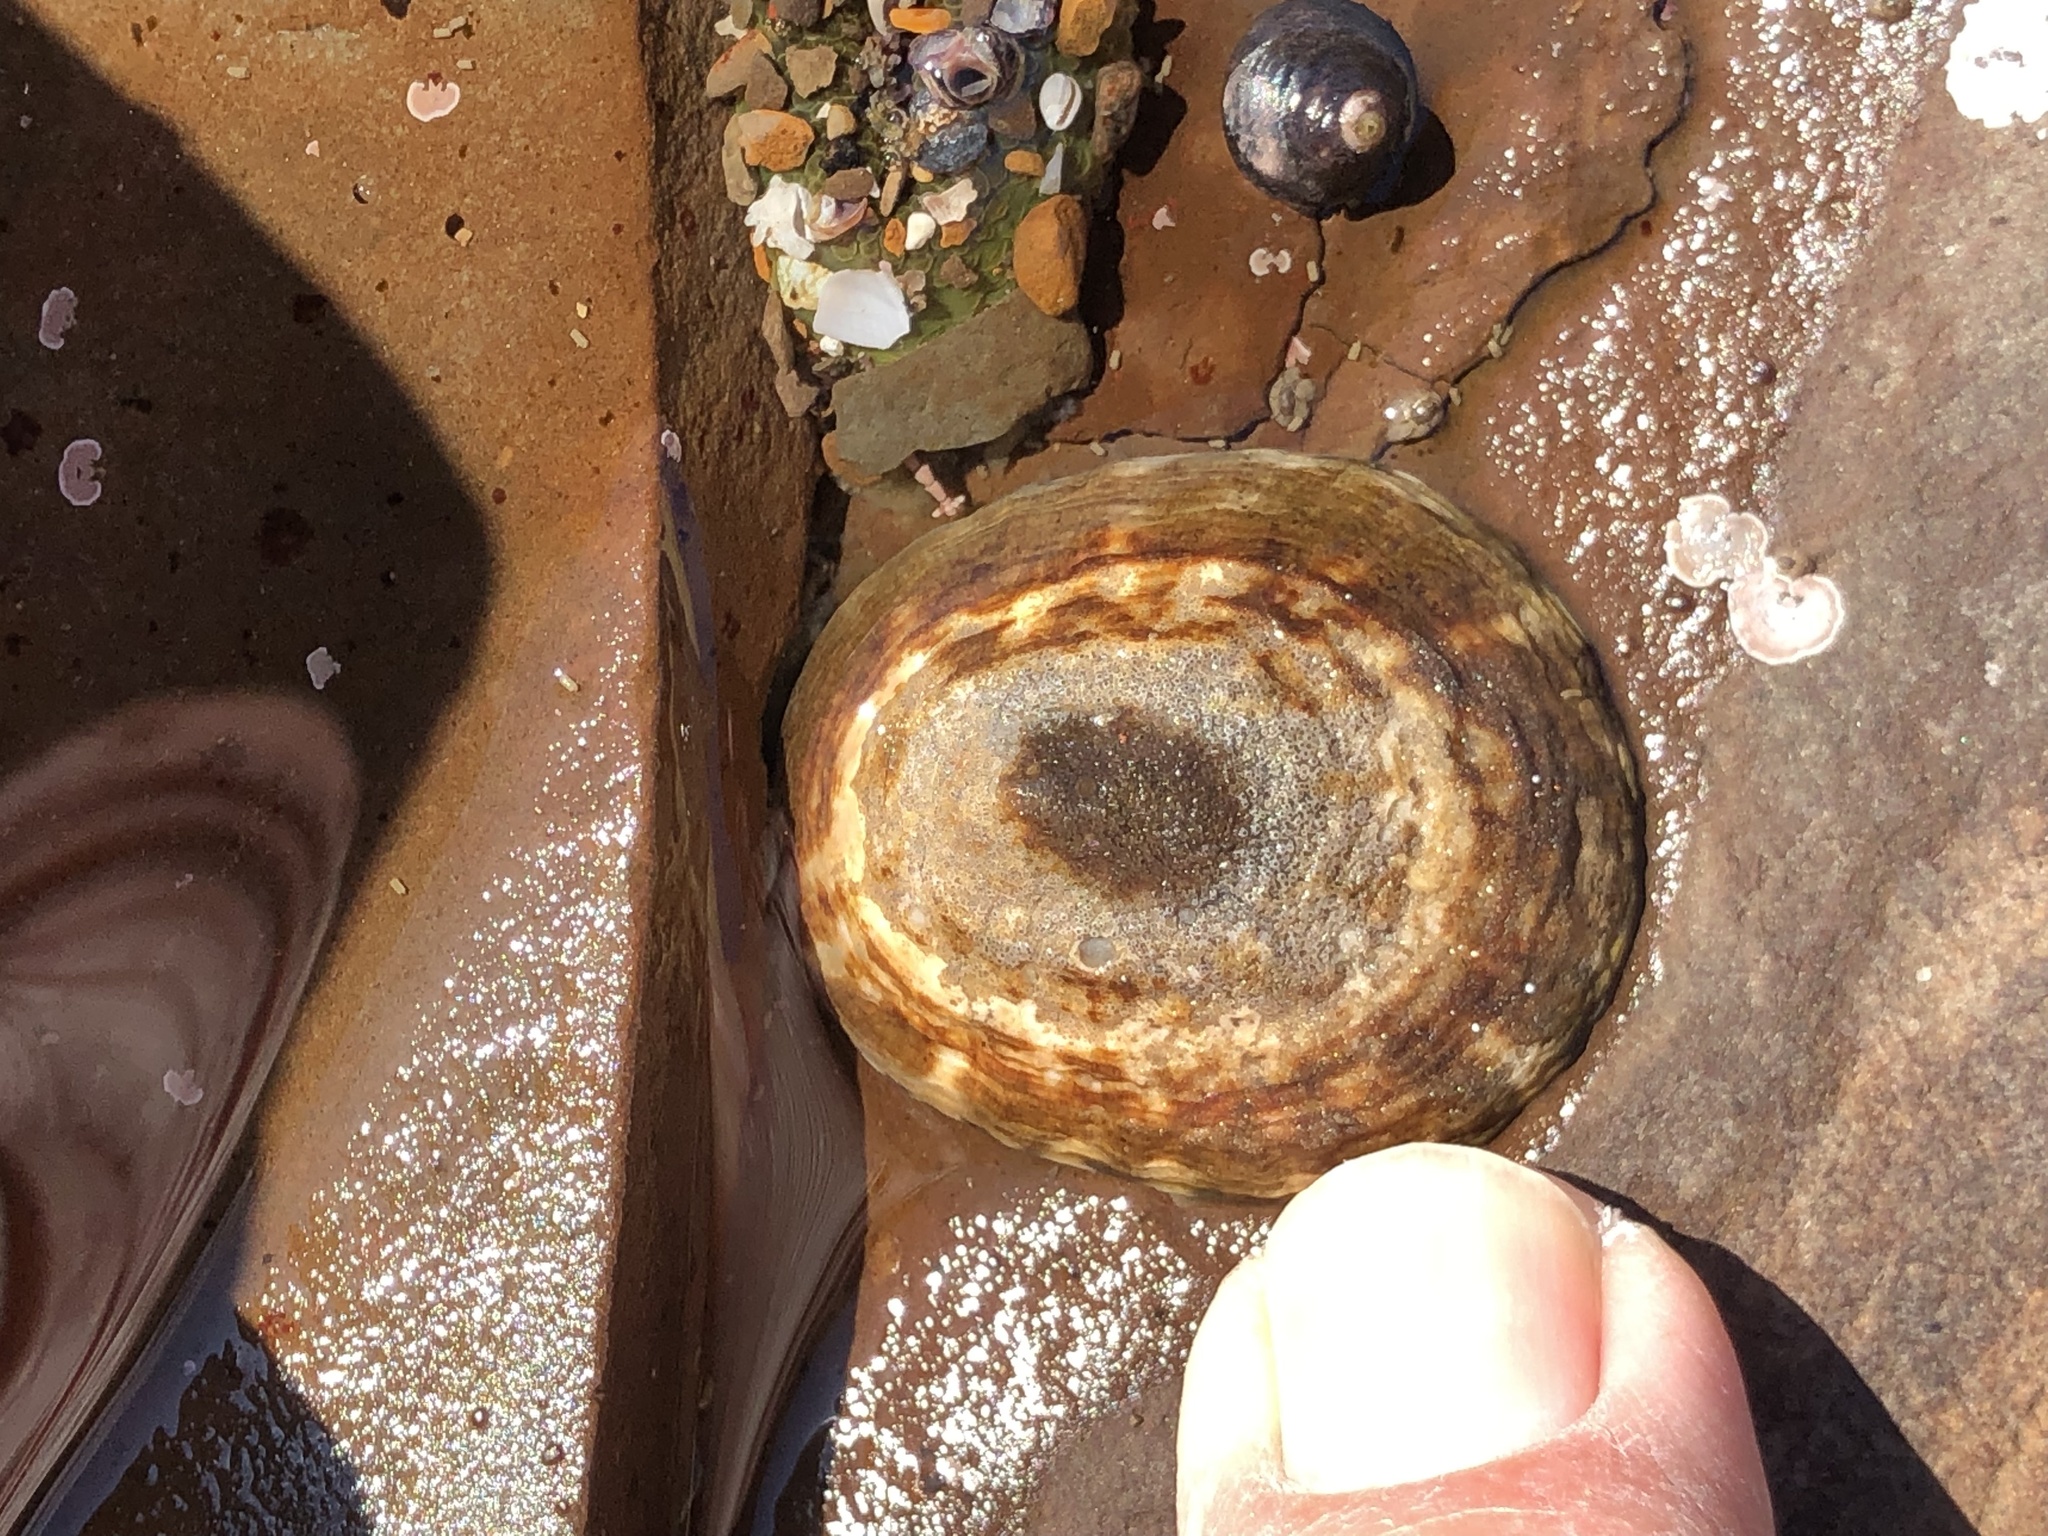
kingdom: Animalia
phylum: Mollusca
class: Gastropoda
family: Lottiidae
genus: Lottia
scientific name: Lottia scutum
